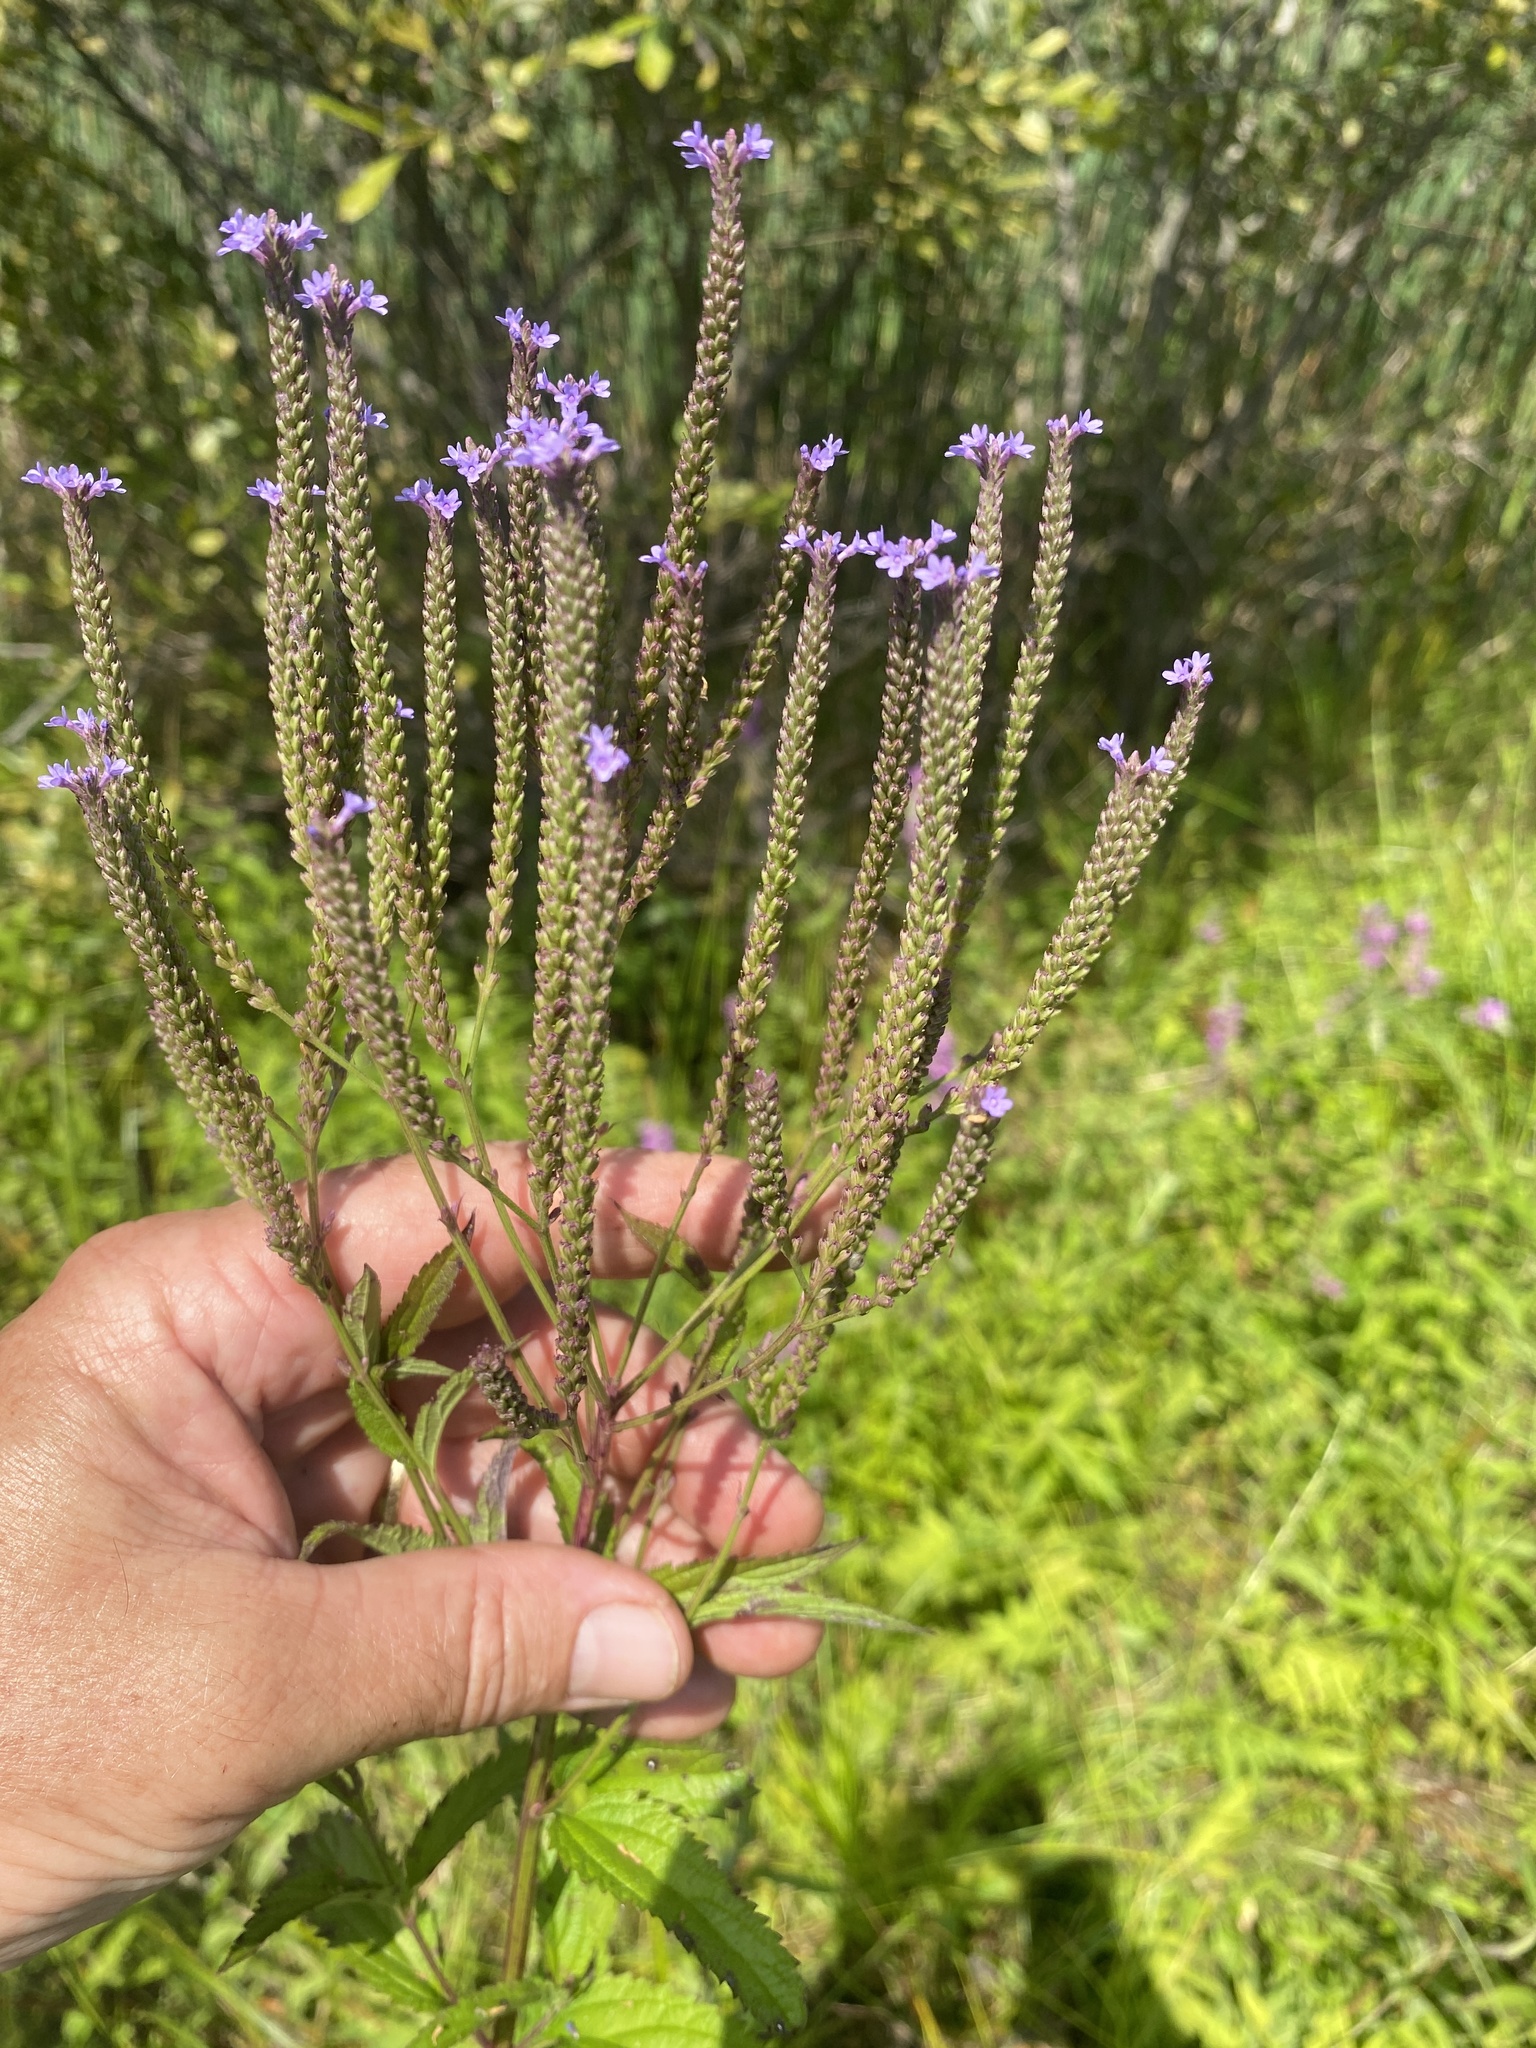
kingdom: Plantae
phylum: Tracheophyta
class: Magnoliopsida
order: Lamiales
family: Verbenaceae
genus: Verbena
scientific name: Verbena hastata
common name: American blue vervain
